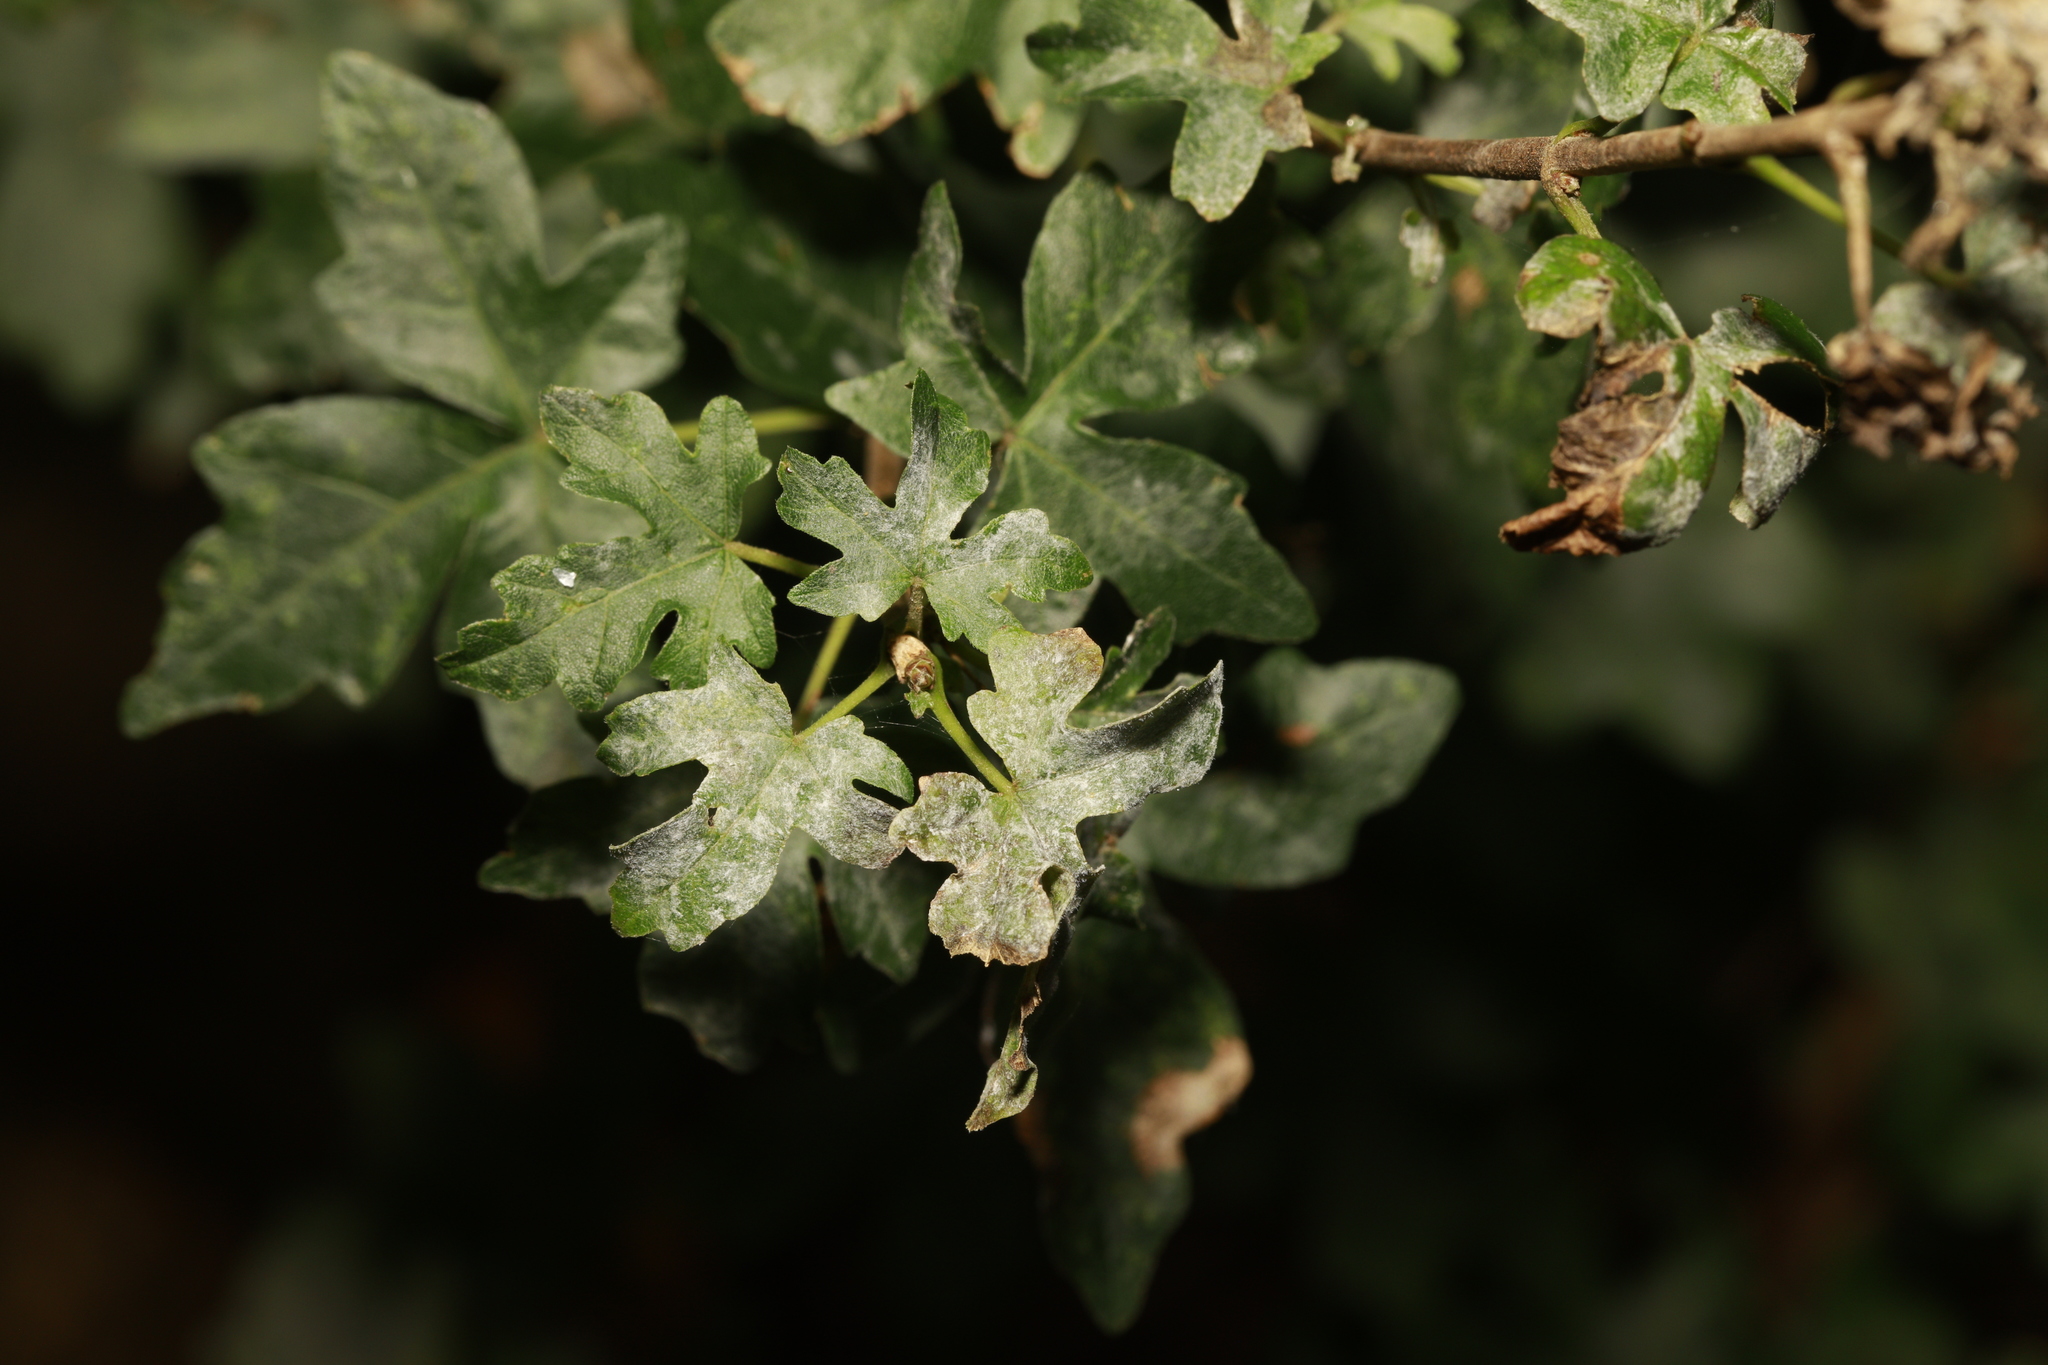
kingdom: Plantae
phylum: Tracheophyta
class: Magnoliopsida
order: Sapindales
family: Sapindaceae
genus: Acer
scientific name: Acer campestre
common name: Field maple
